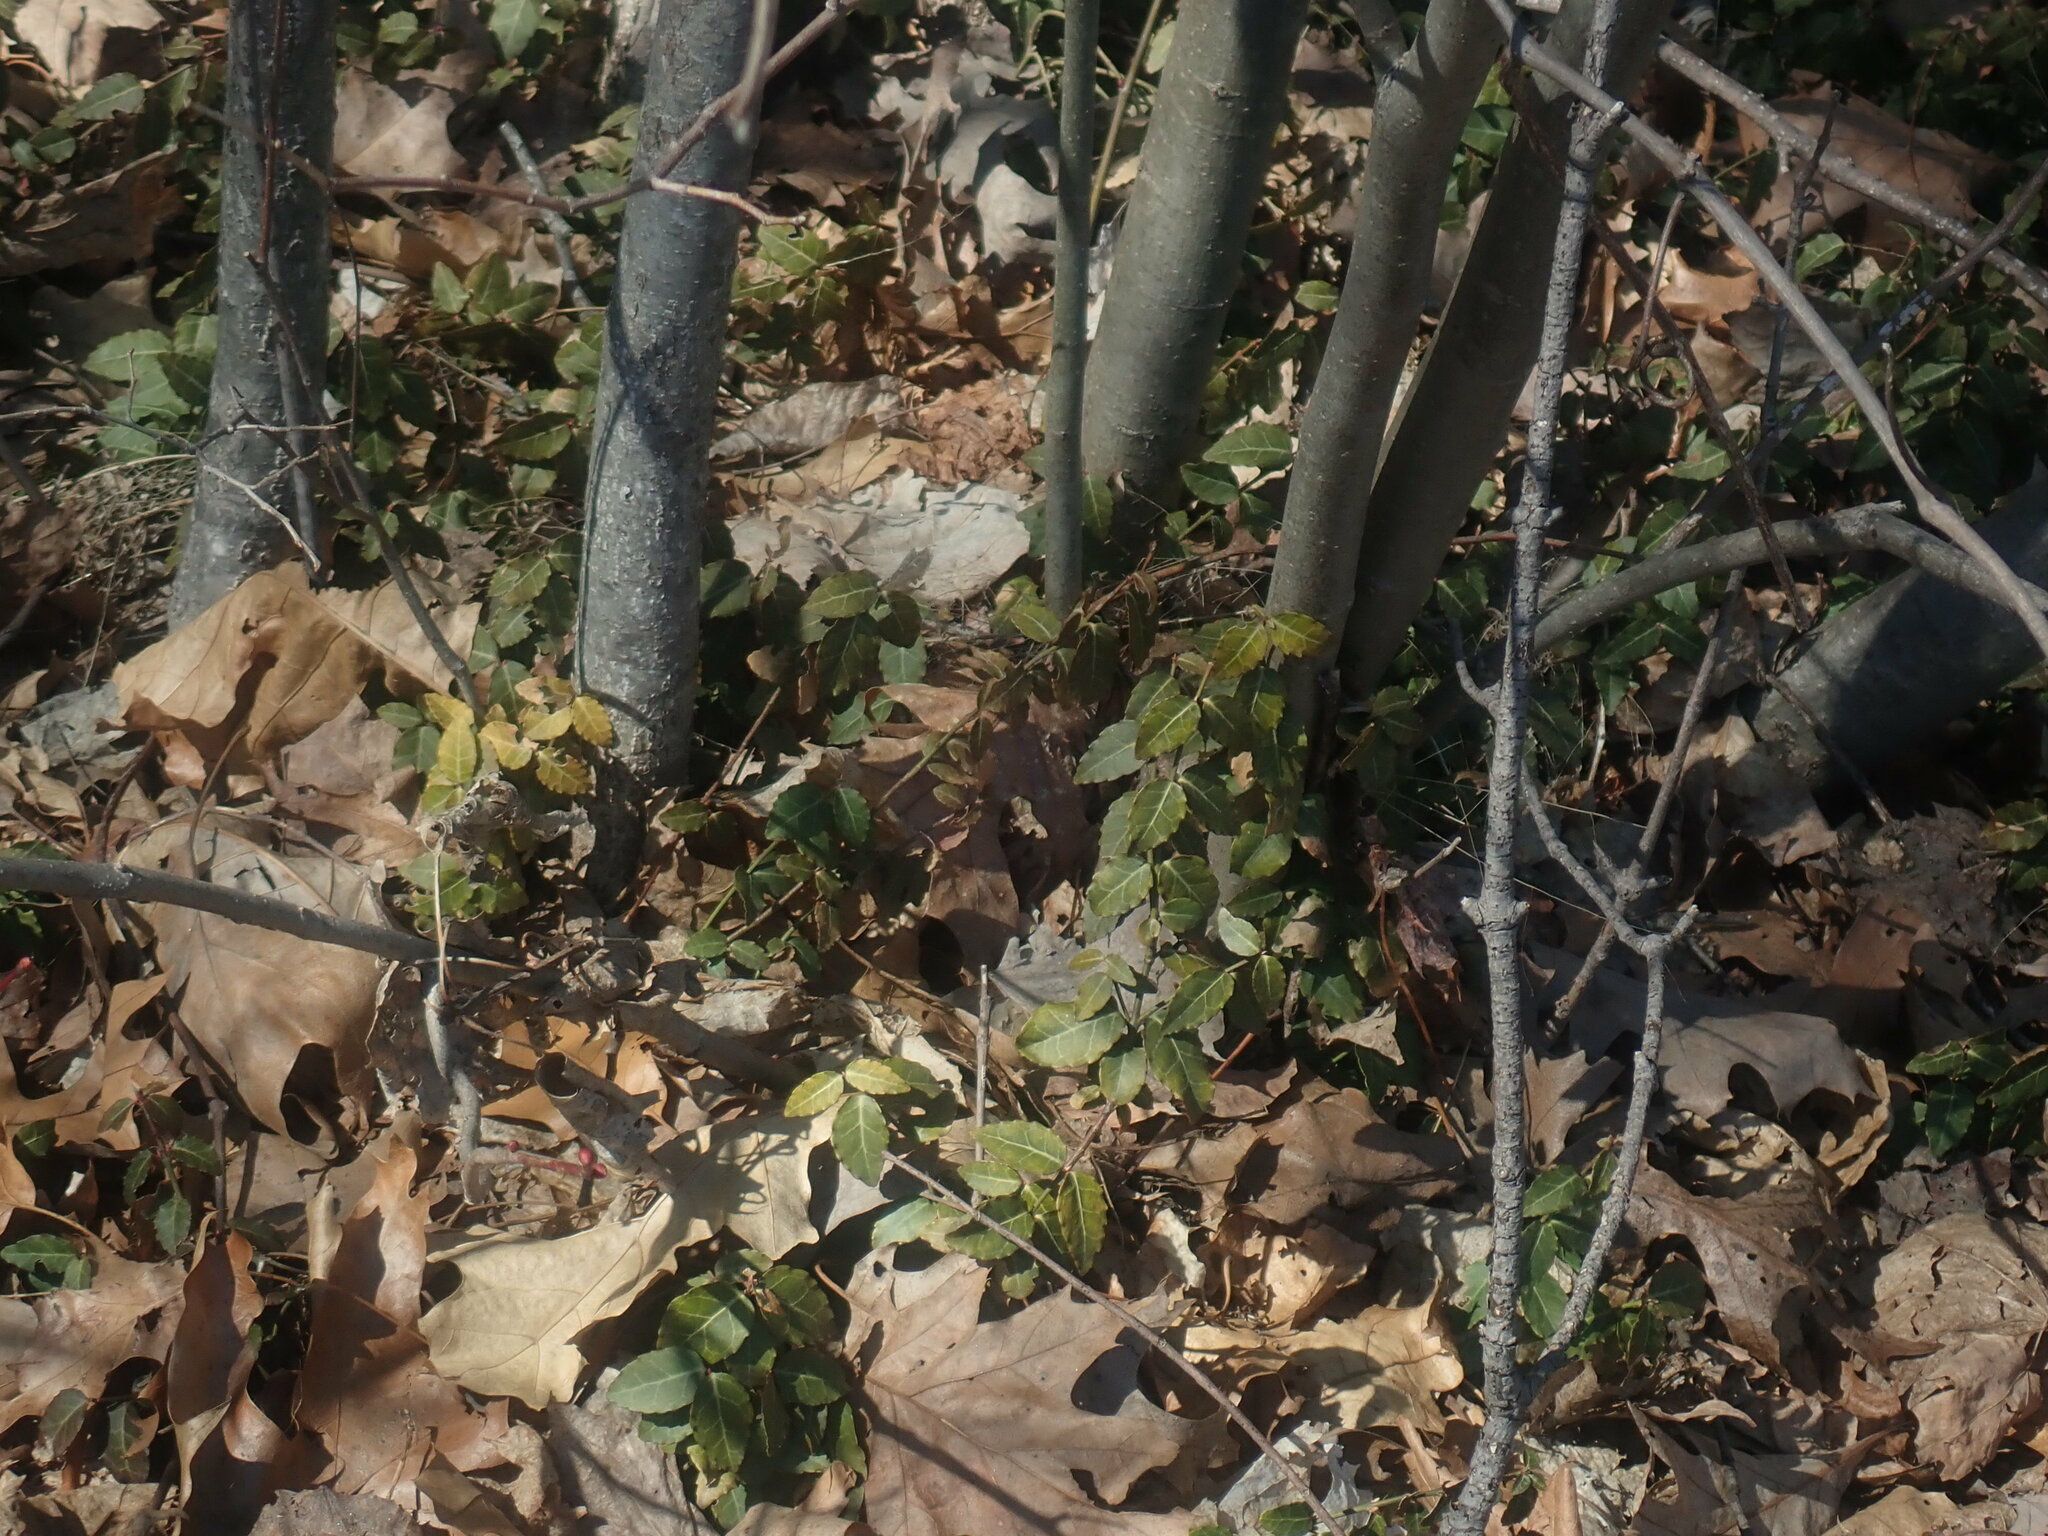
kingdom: Plantae
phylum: Tracheophyta
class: Magnoliopsida
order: Celastrales
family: Celastraceae
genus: Euonymus
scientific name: Euonymus fortunei
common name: Climbing euonymus
